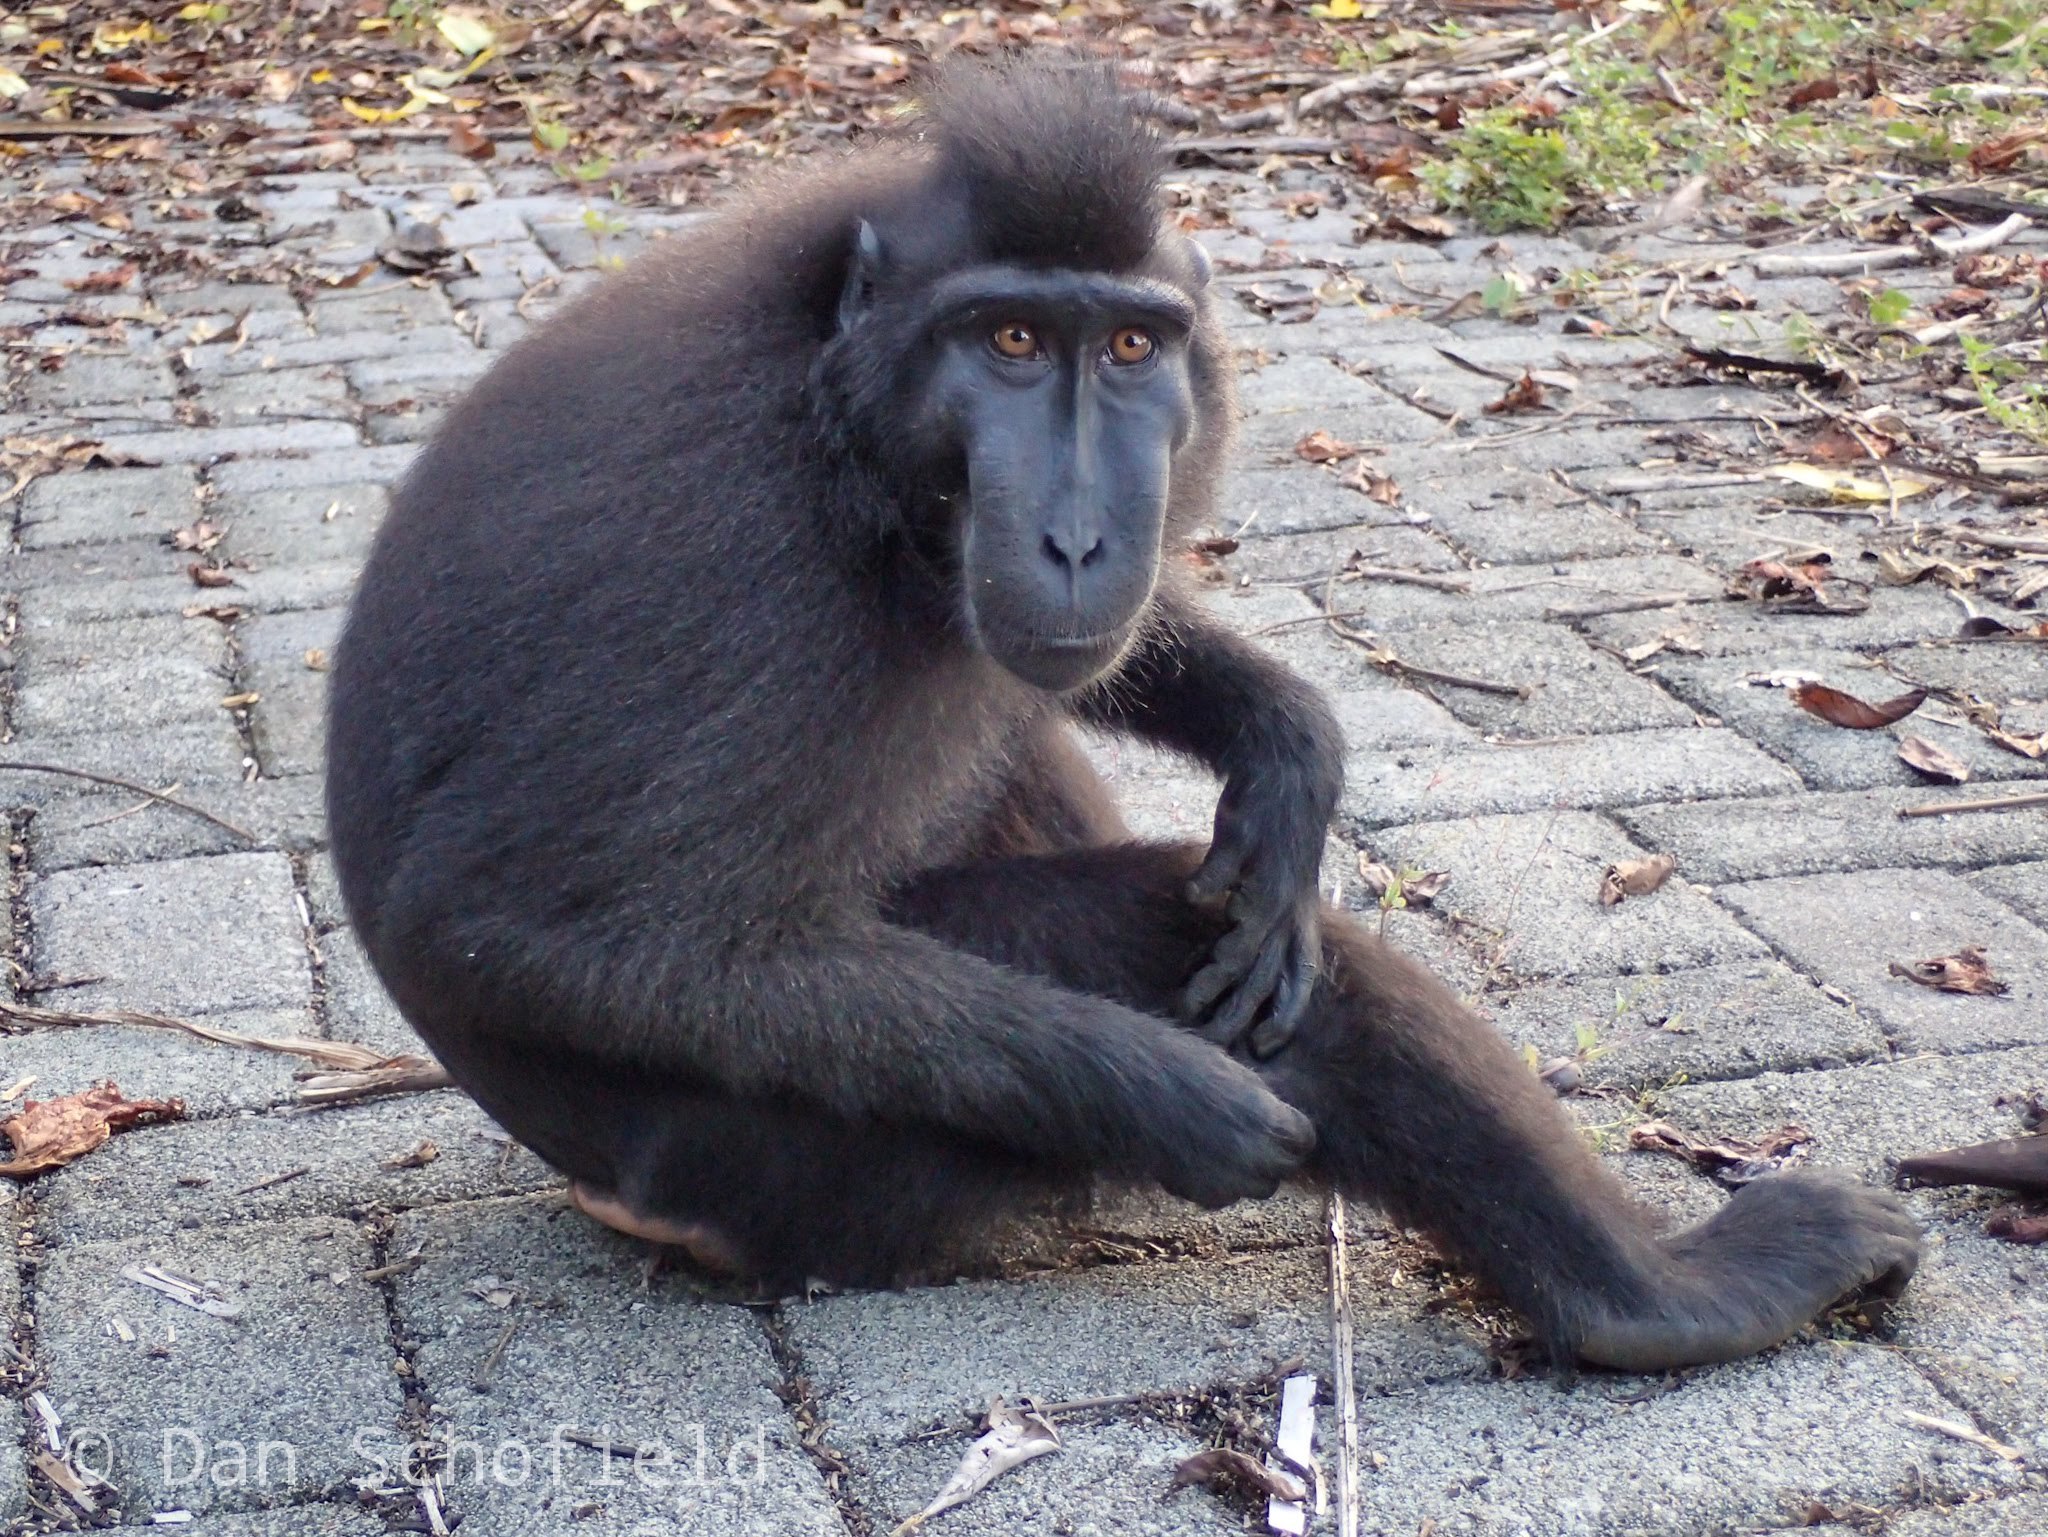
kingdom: Animalia
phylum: Chordata
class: Mammalia
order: Primates
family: Cercopithecidae
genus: Macaca
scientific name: Macaca nigra
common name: Celebes crested macaque
